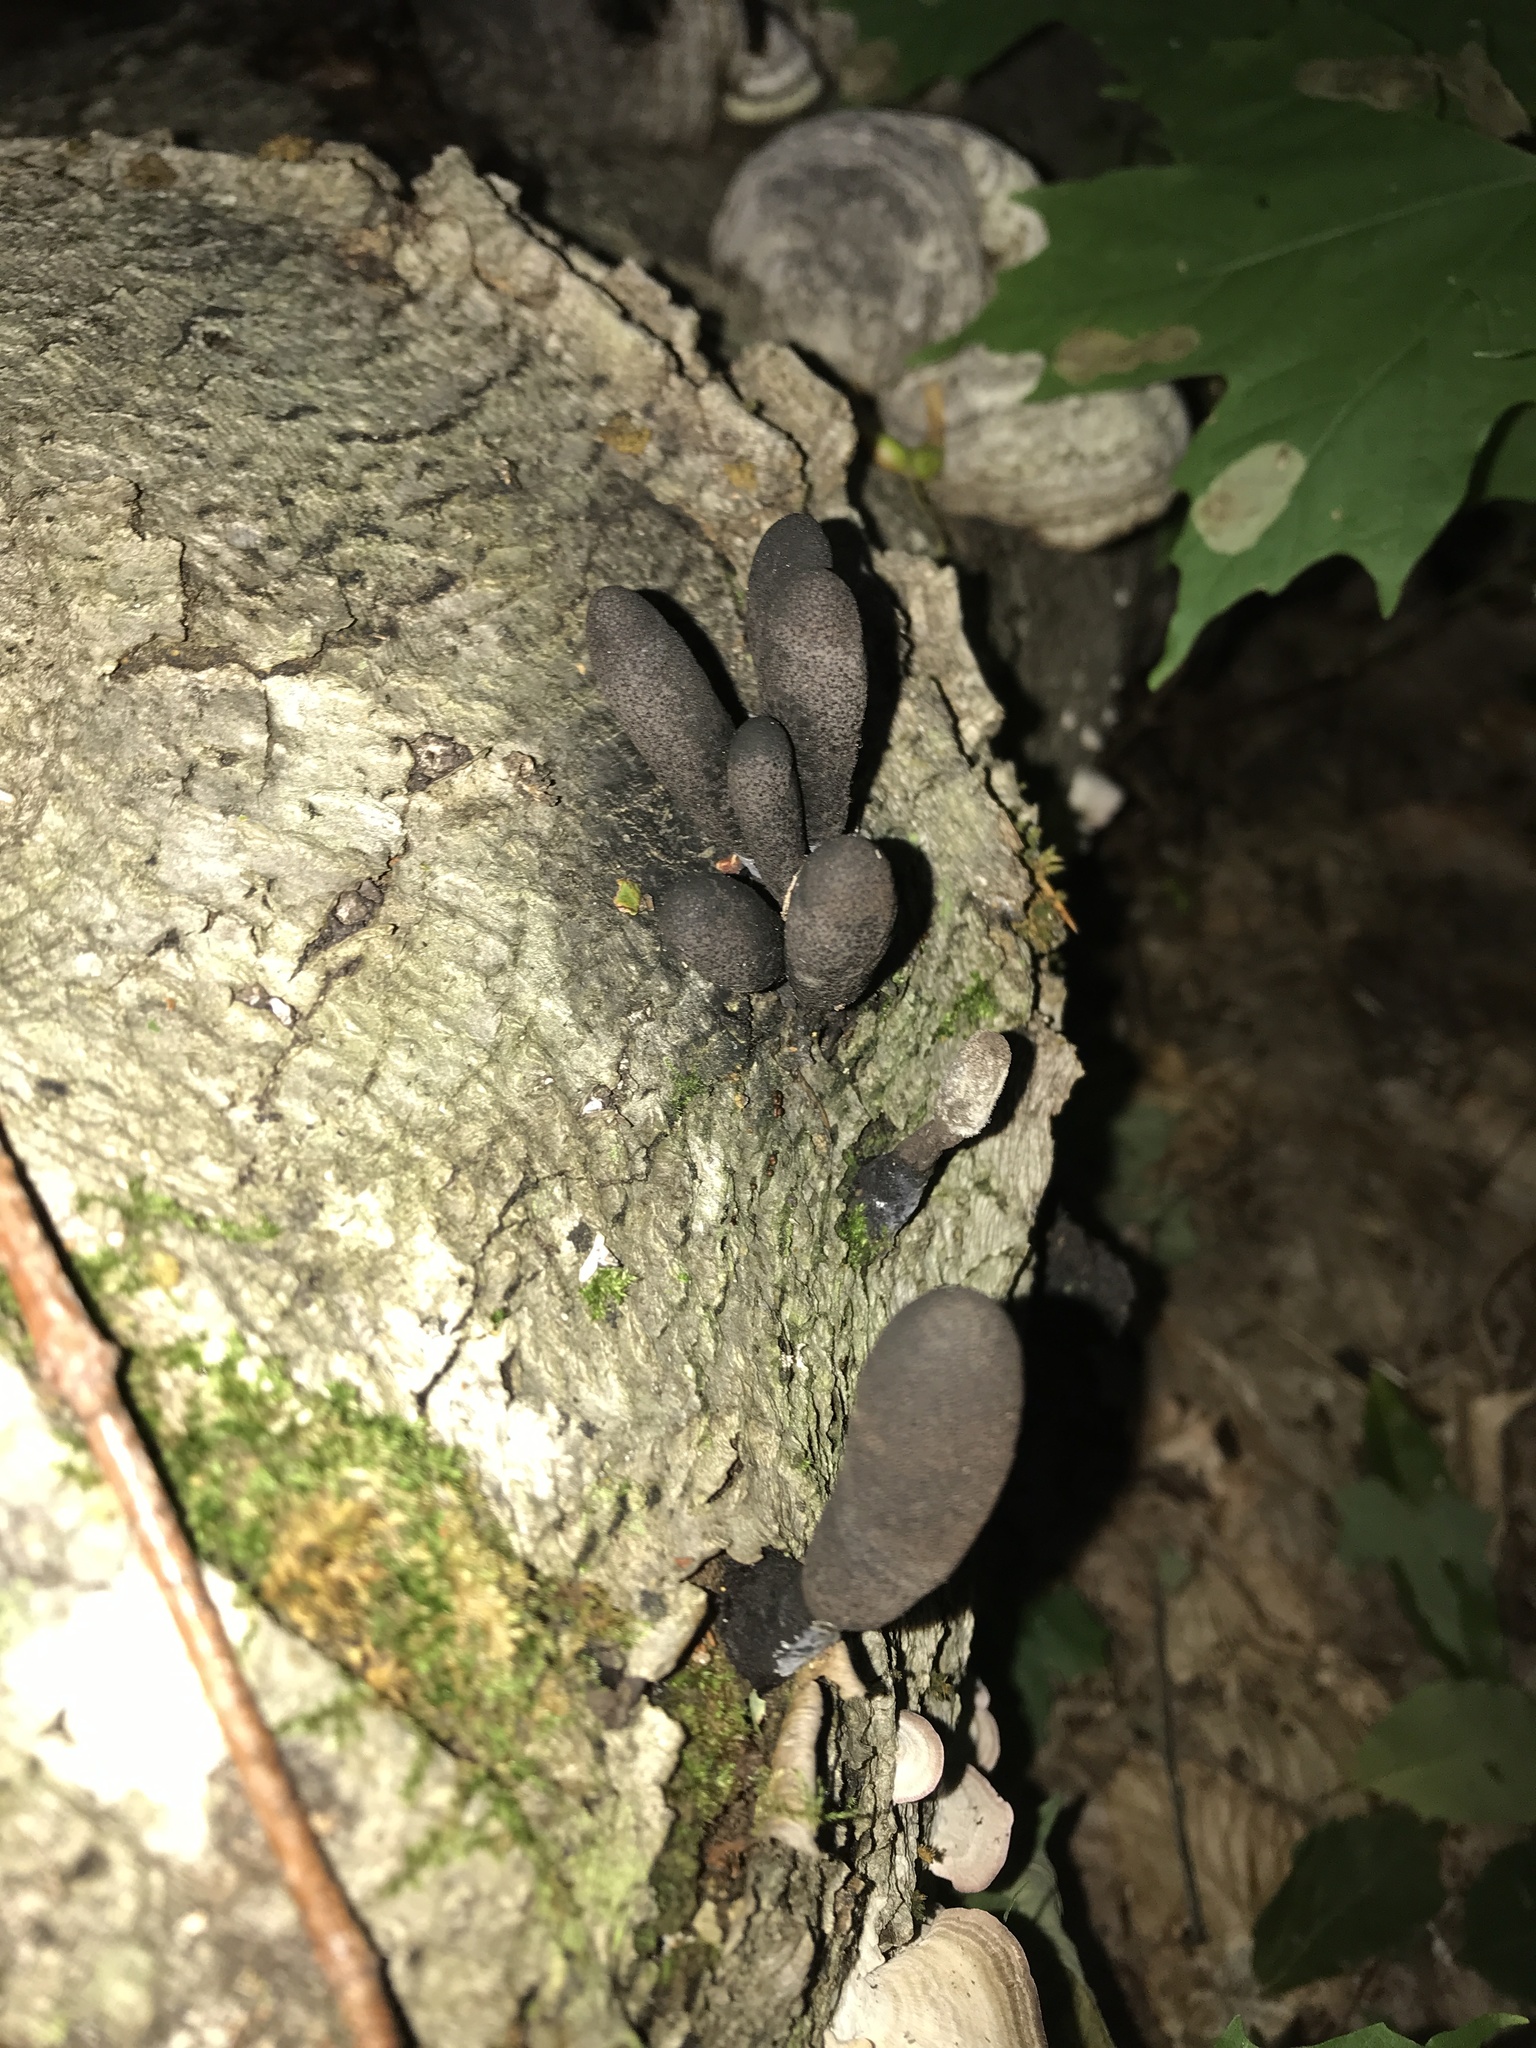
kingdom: Fungi
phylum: Ascomycota
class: Sordariomycetes
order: Xylariales
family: Xylariaceae
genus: Xylaria
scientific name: Xylaria polymorpha
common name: Dead man's fingers
